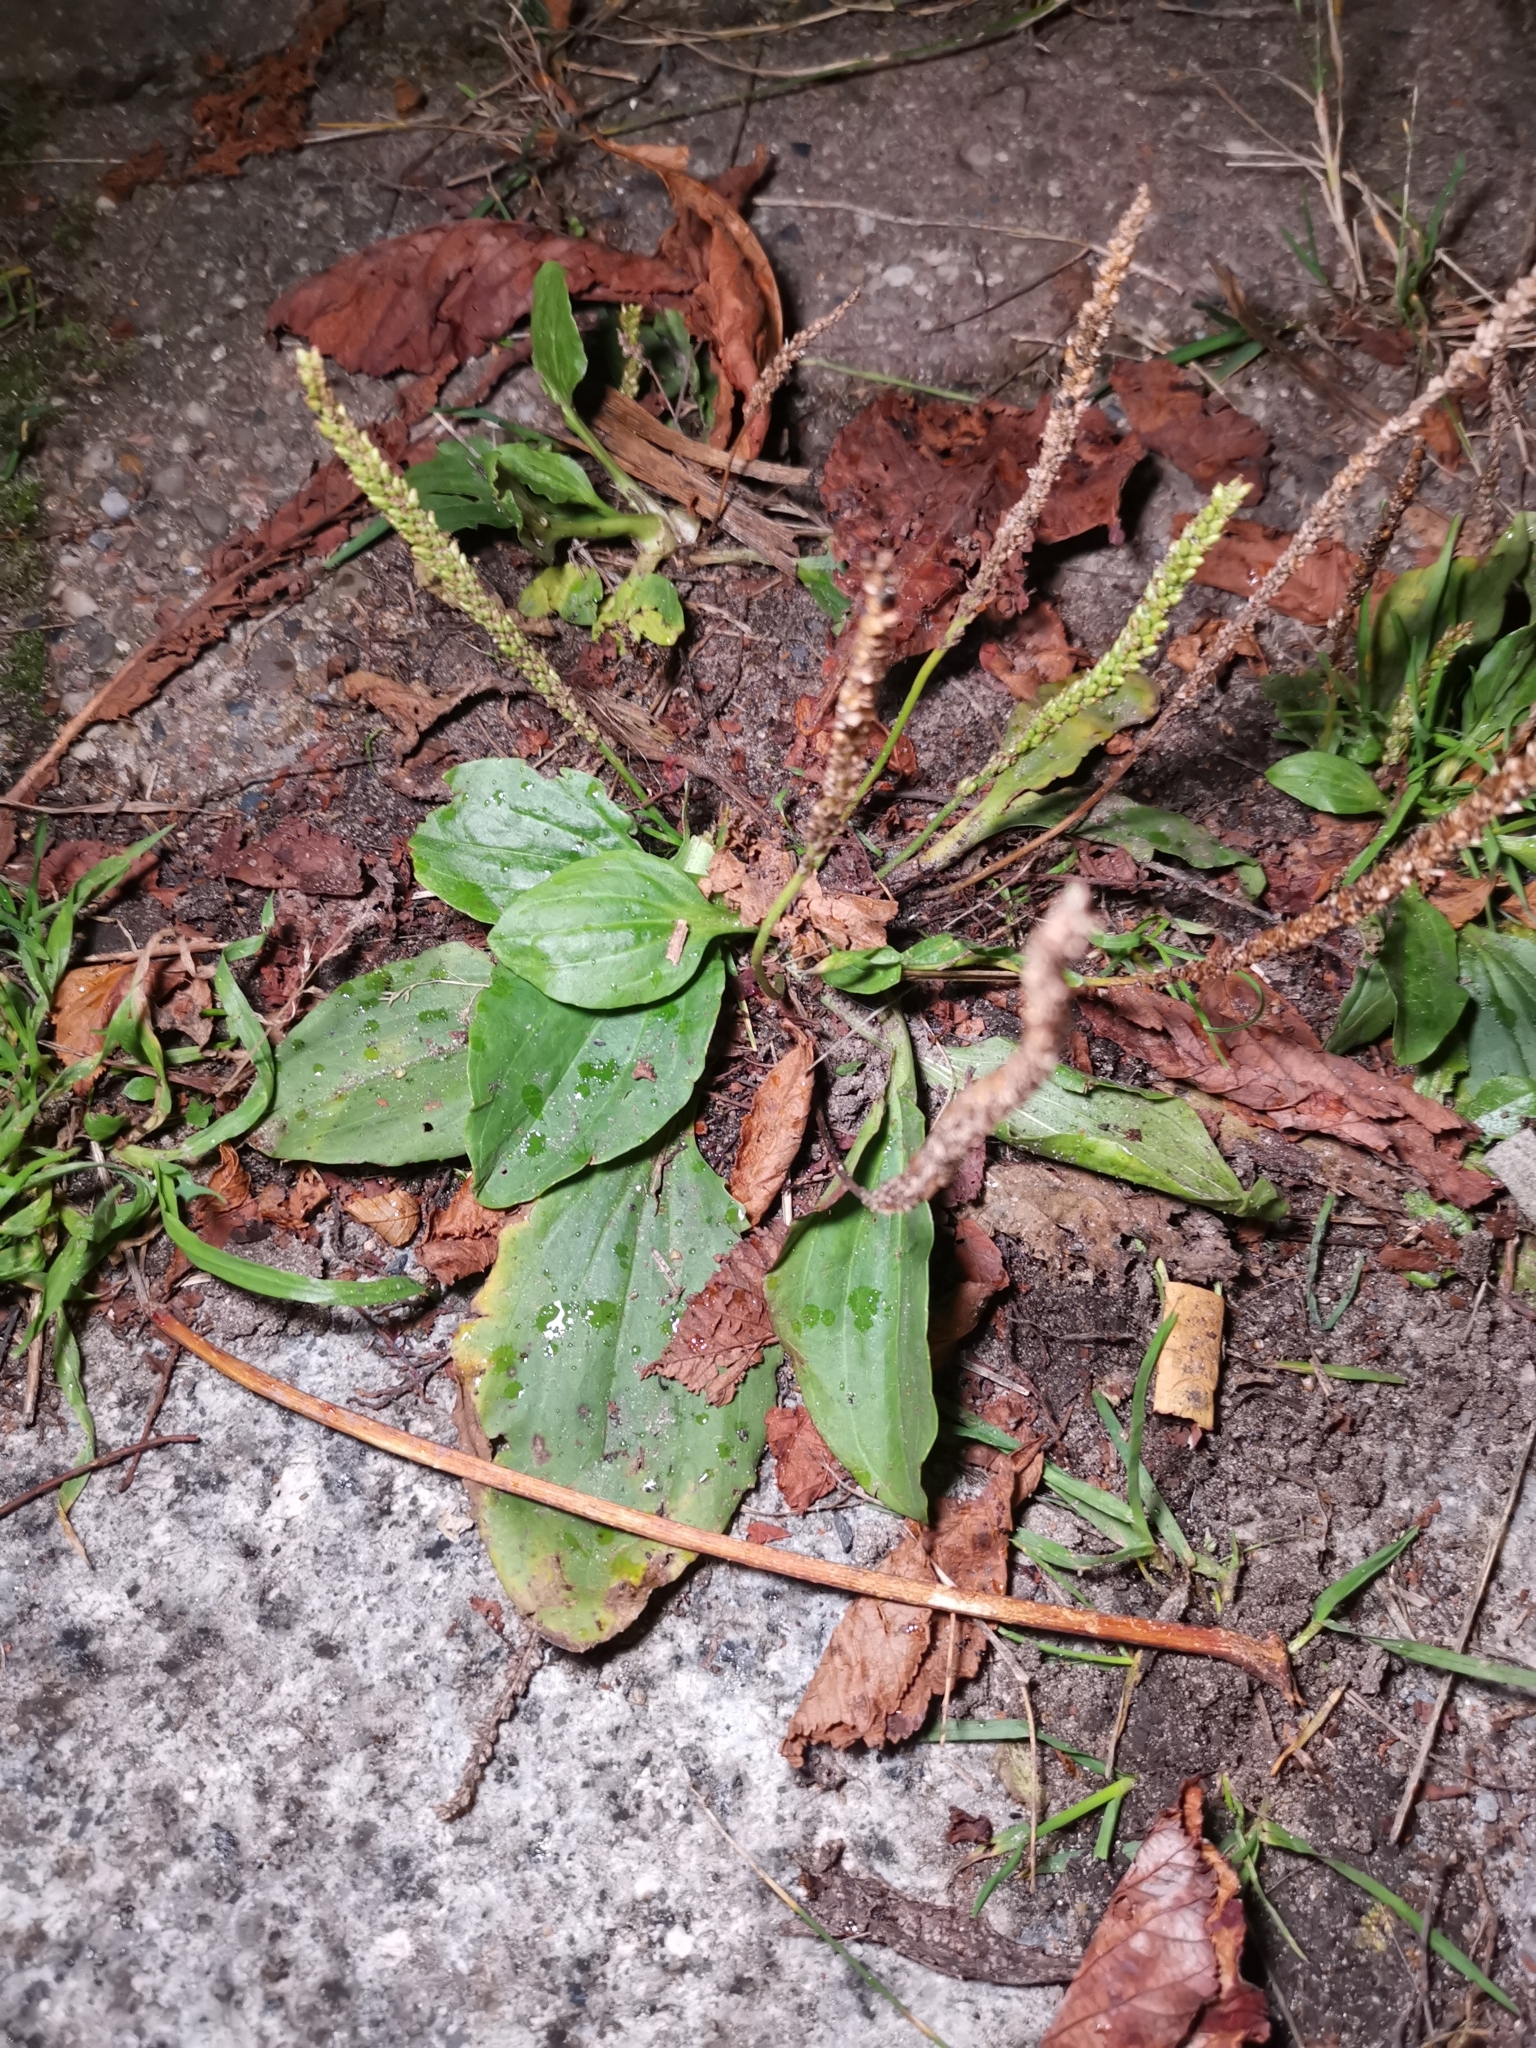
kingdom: Plantae
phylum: Tracheophyta
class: Magnoliopsida
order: Lamiales
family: Plantaginaceae
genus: Plantago
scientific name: Plantago major
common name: Common plantain
